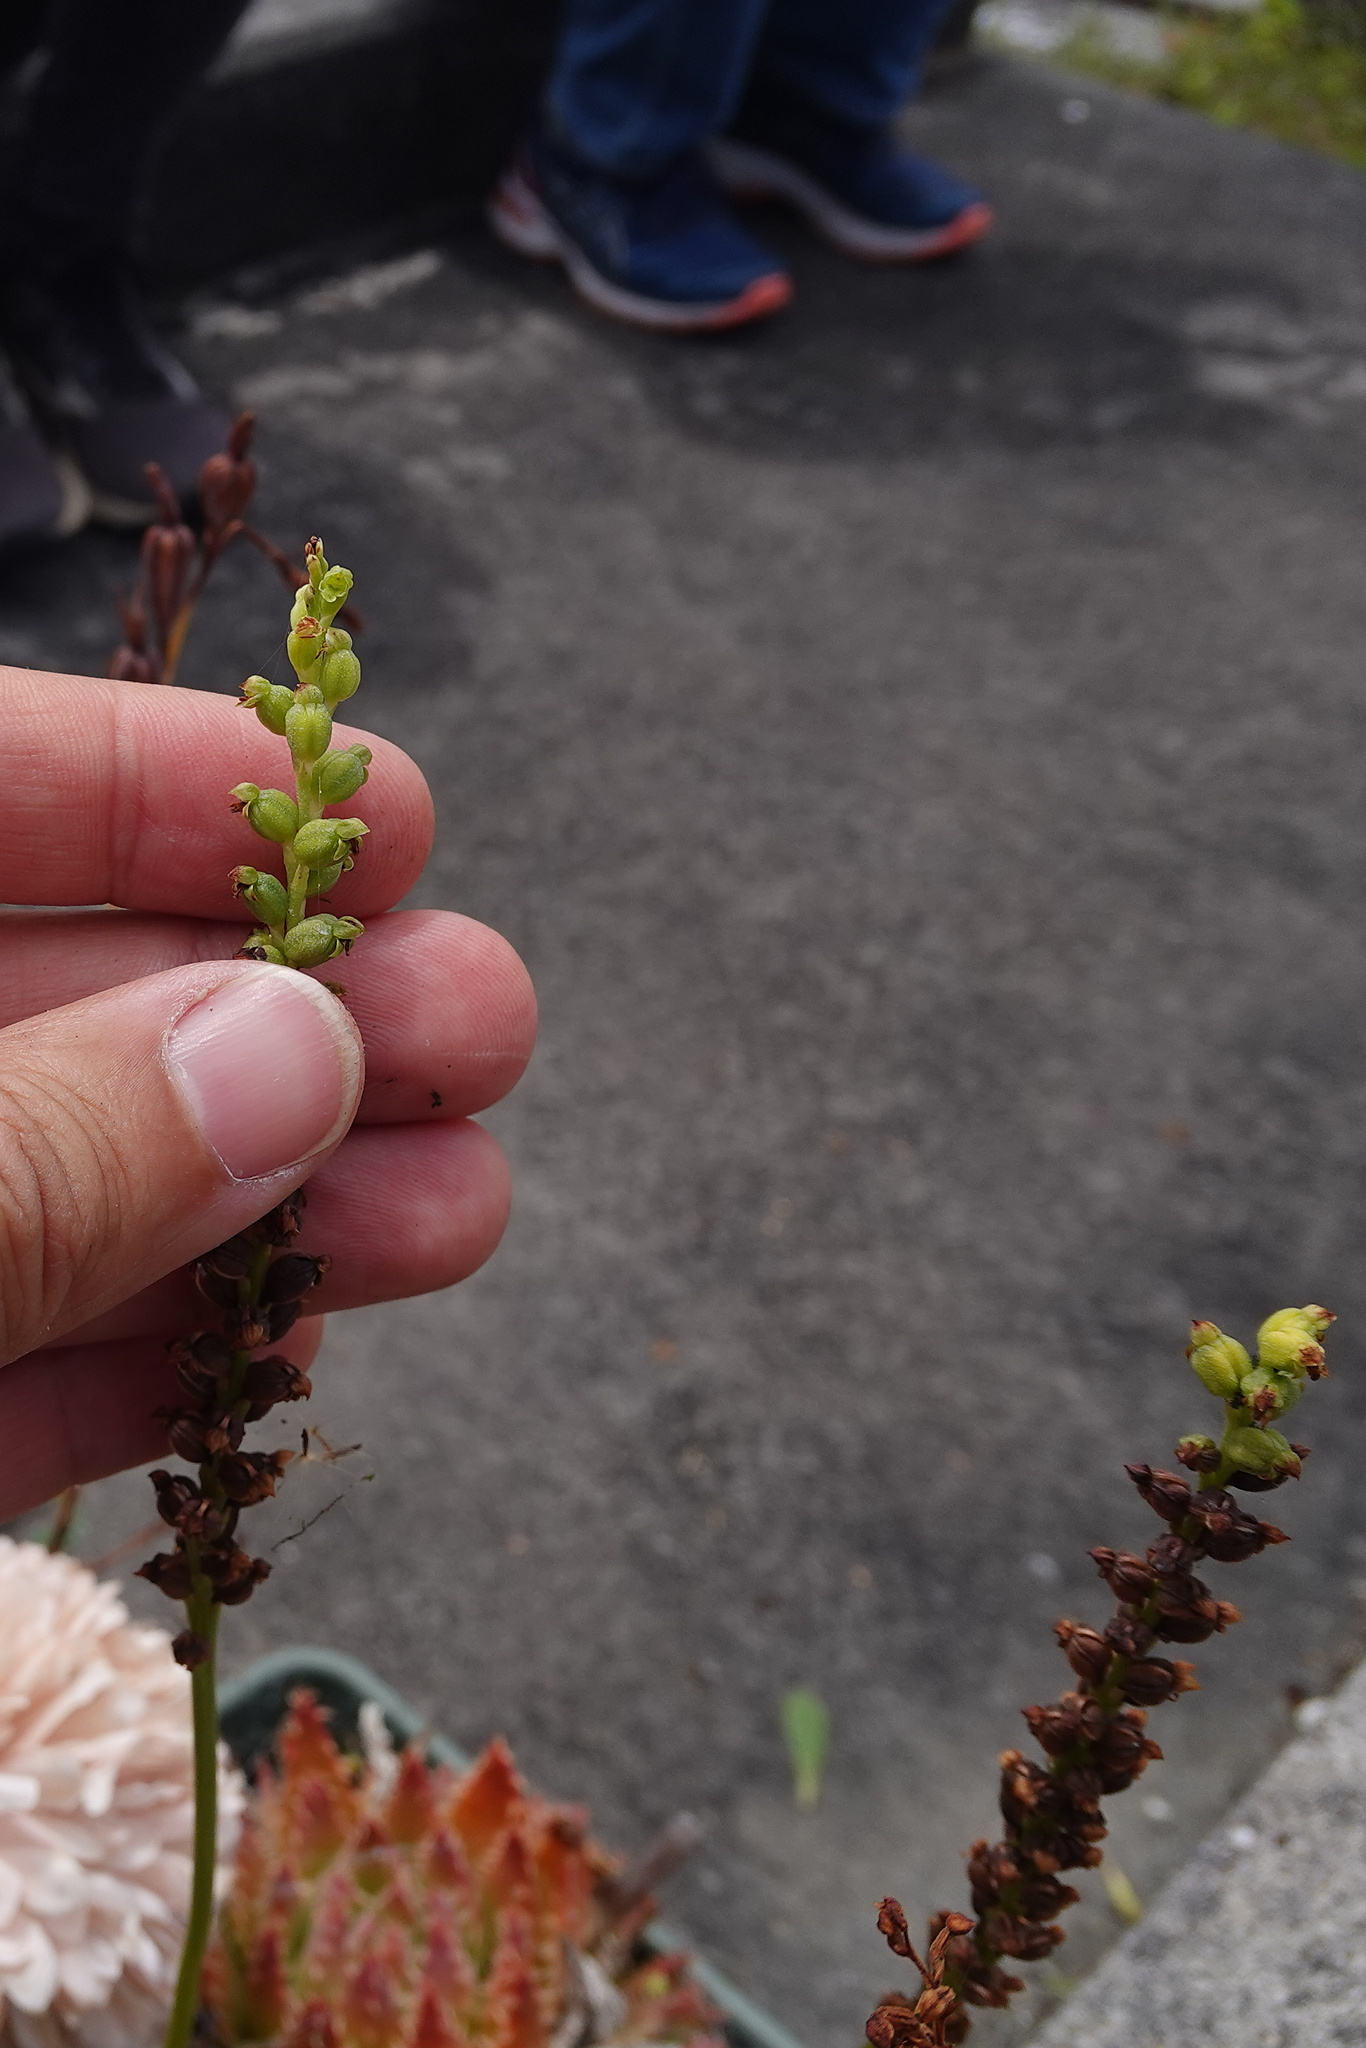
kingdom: Plantae
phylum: Tracheophyta
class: Liliopsida
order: Asparagales
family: Orchidaceae
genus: Microtis
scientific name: Microtis unifolia
